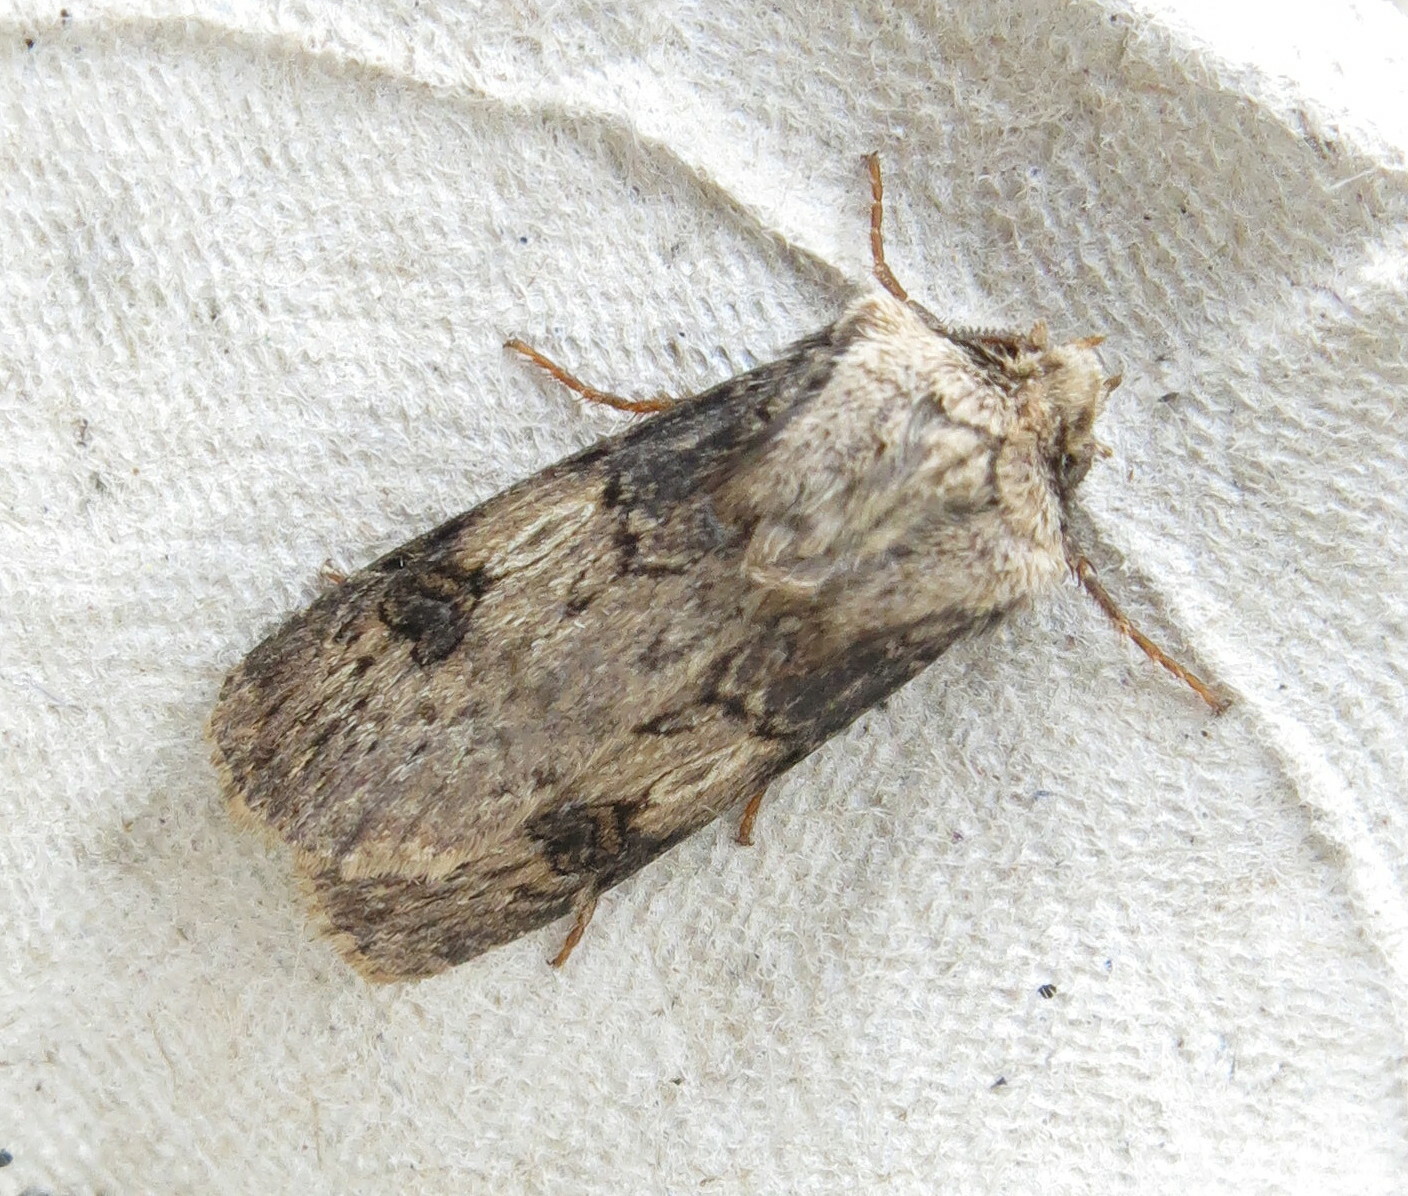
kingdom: Animalia
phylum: Arthropoda
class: Insecta
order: Lepidoptera
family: Noctuidae
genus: Agrotis
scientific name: Agrotis puta
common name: Shuttle-shaped dart
